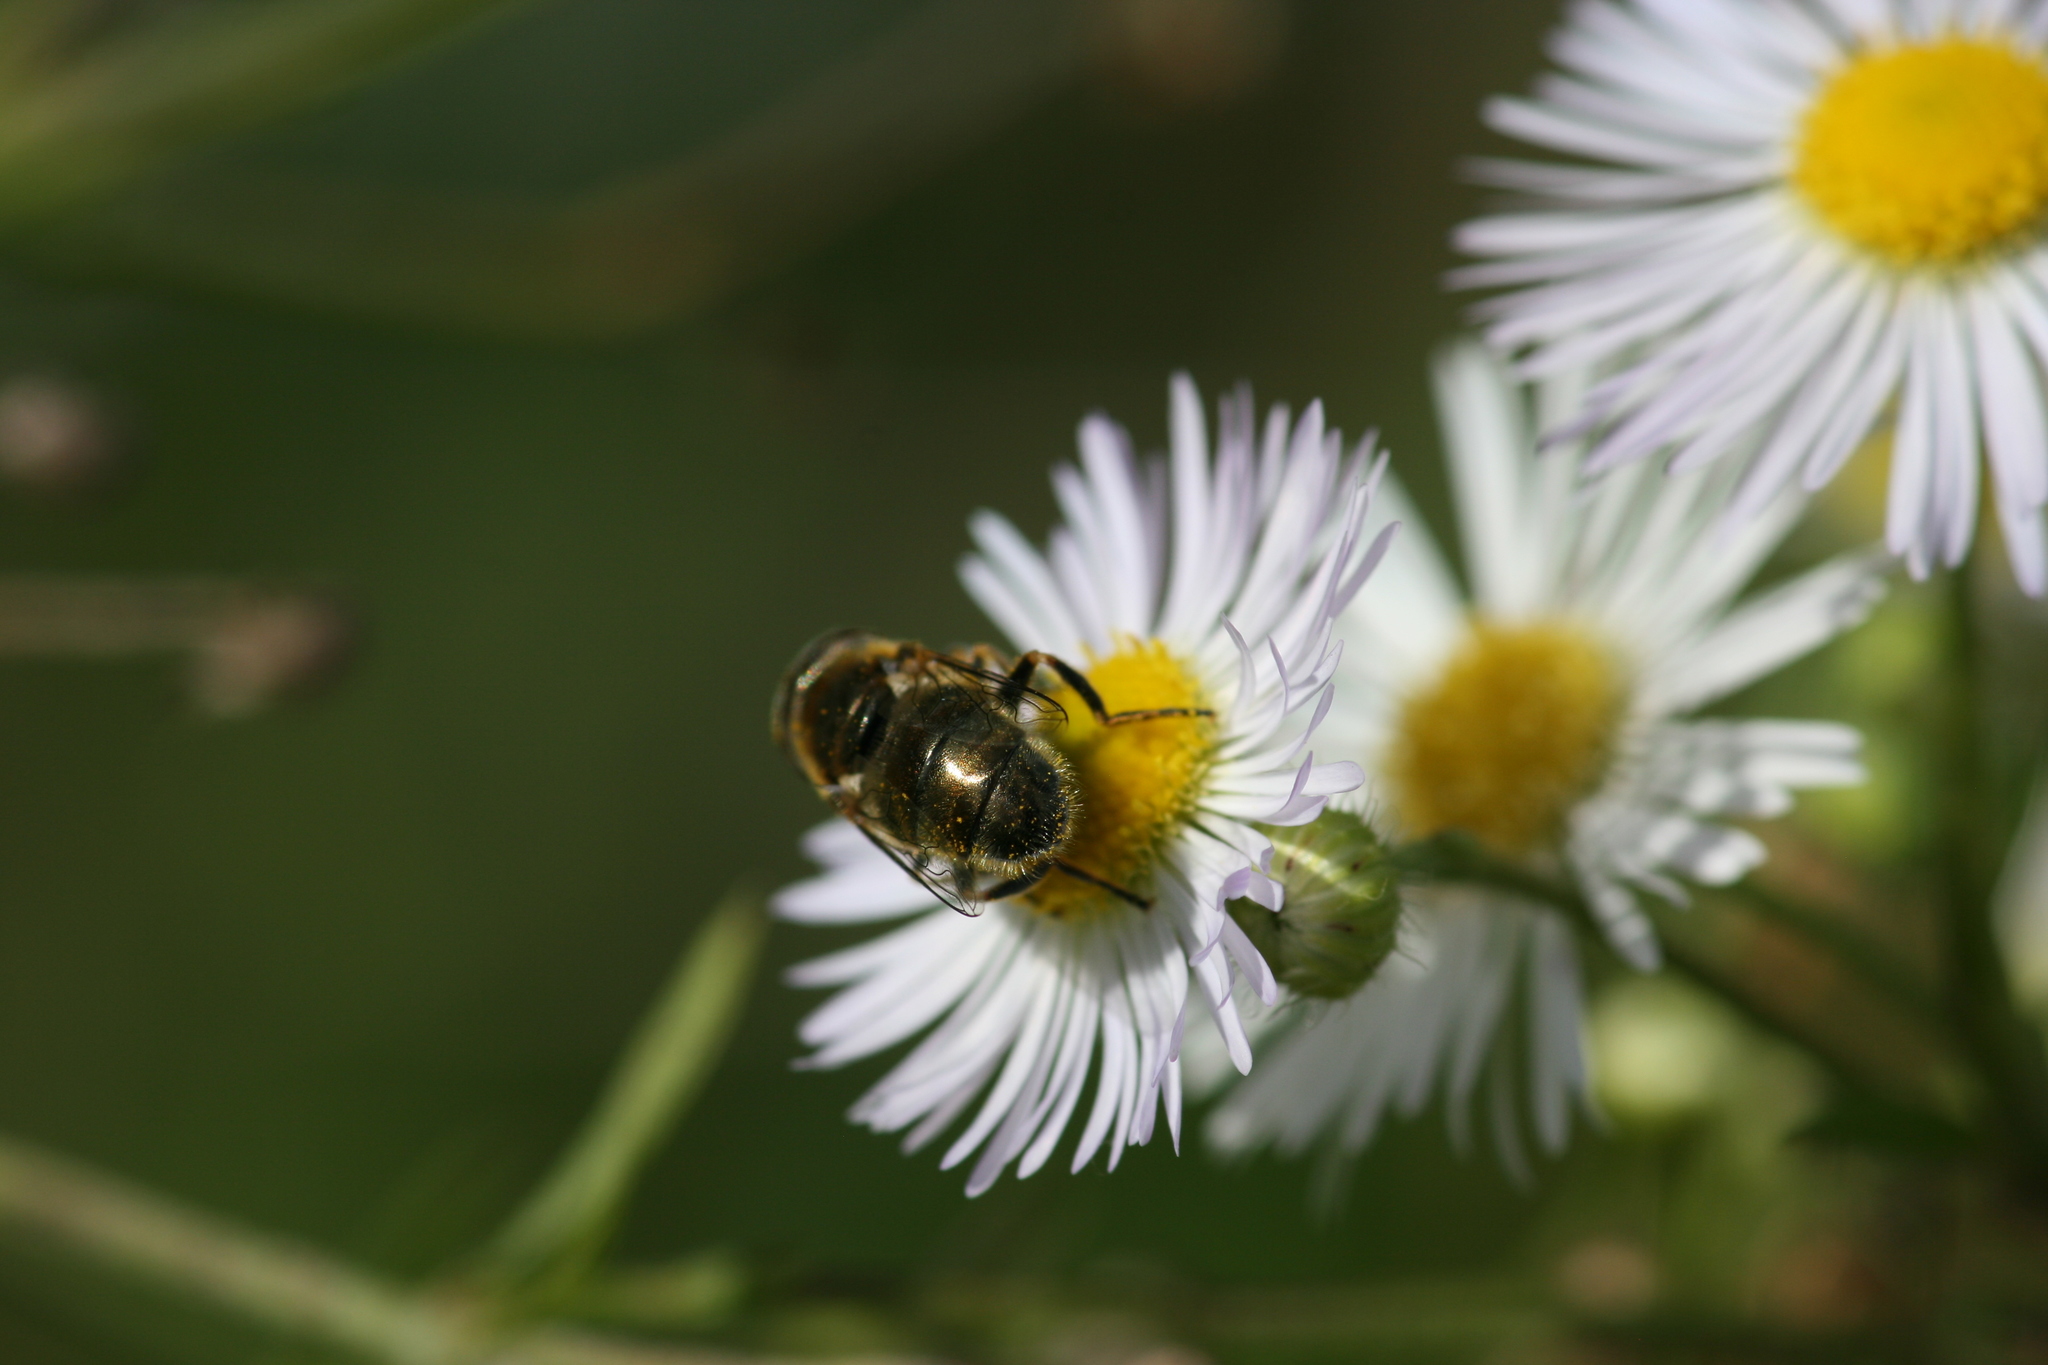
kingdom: Animalia
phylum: Arthropoda
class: Insecta
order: Diptera
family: Syrphidae
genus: Eristalinus
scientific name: Eristalinus aeneus
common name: Syrphid fly
